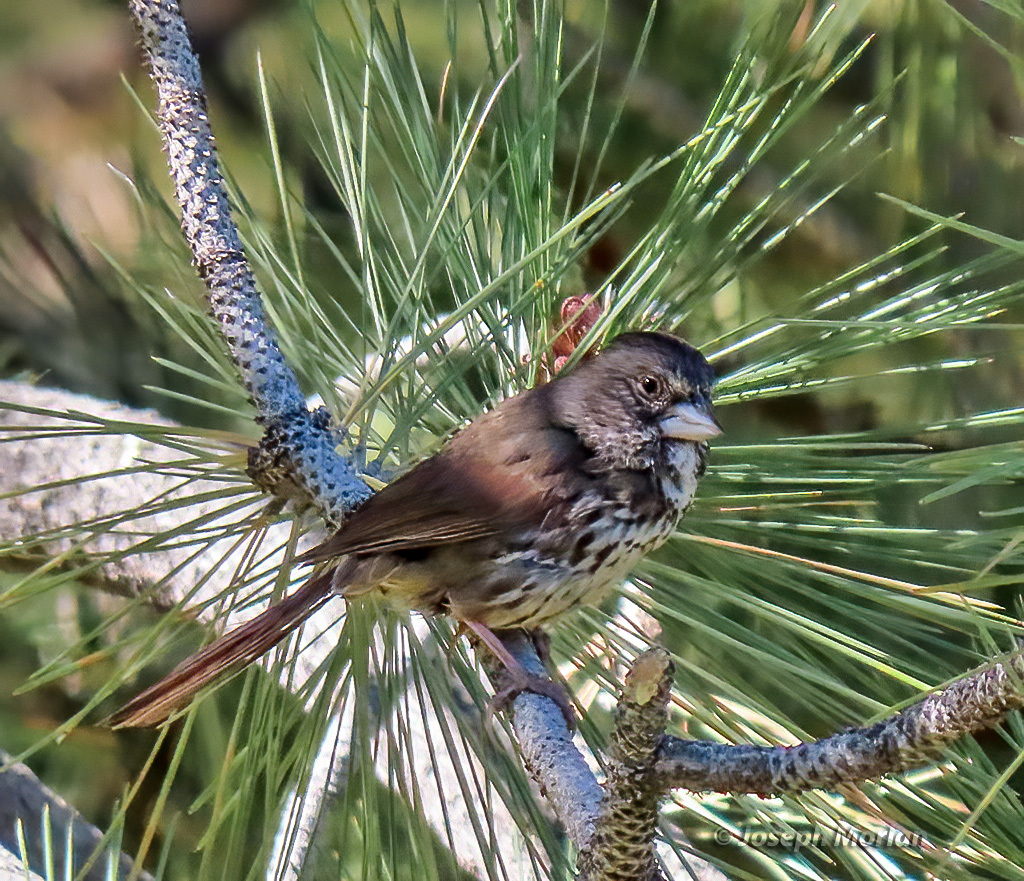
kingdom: Animalia
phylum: Chordata
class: Aves
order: Passeriformes
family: Passerellidae
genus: Passerella
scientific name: Passerella iliaca
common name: Fox sparrow
